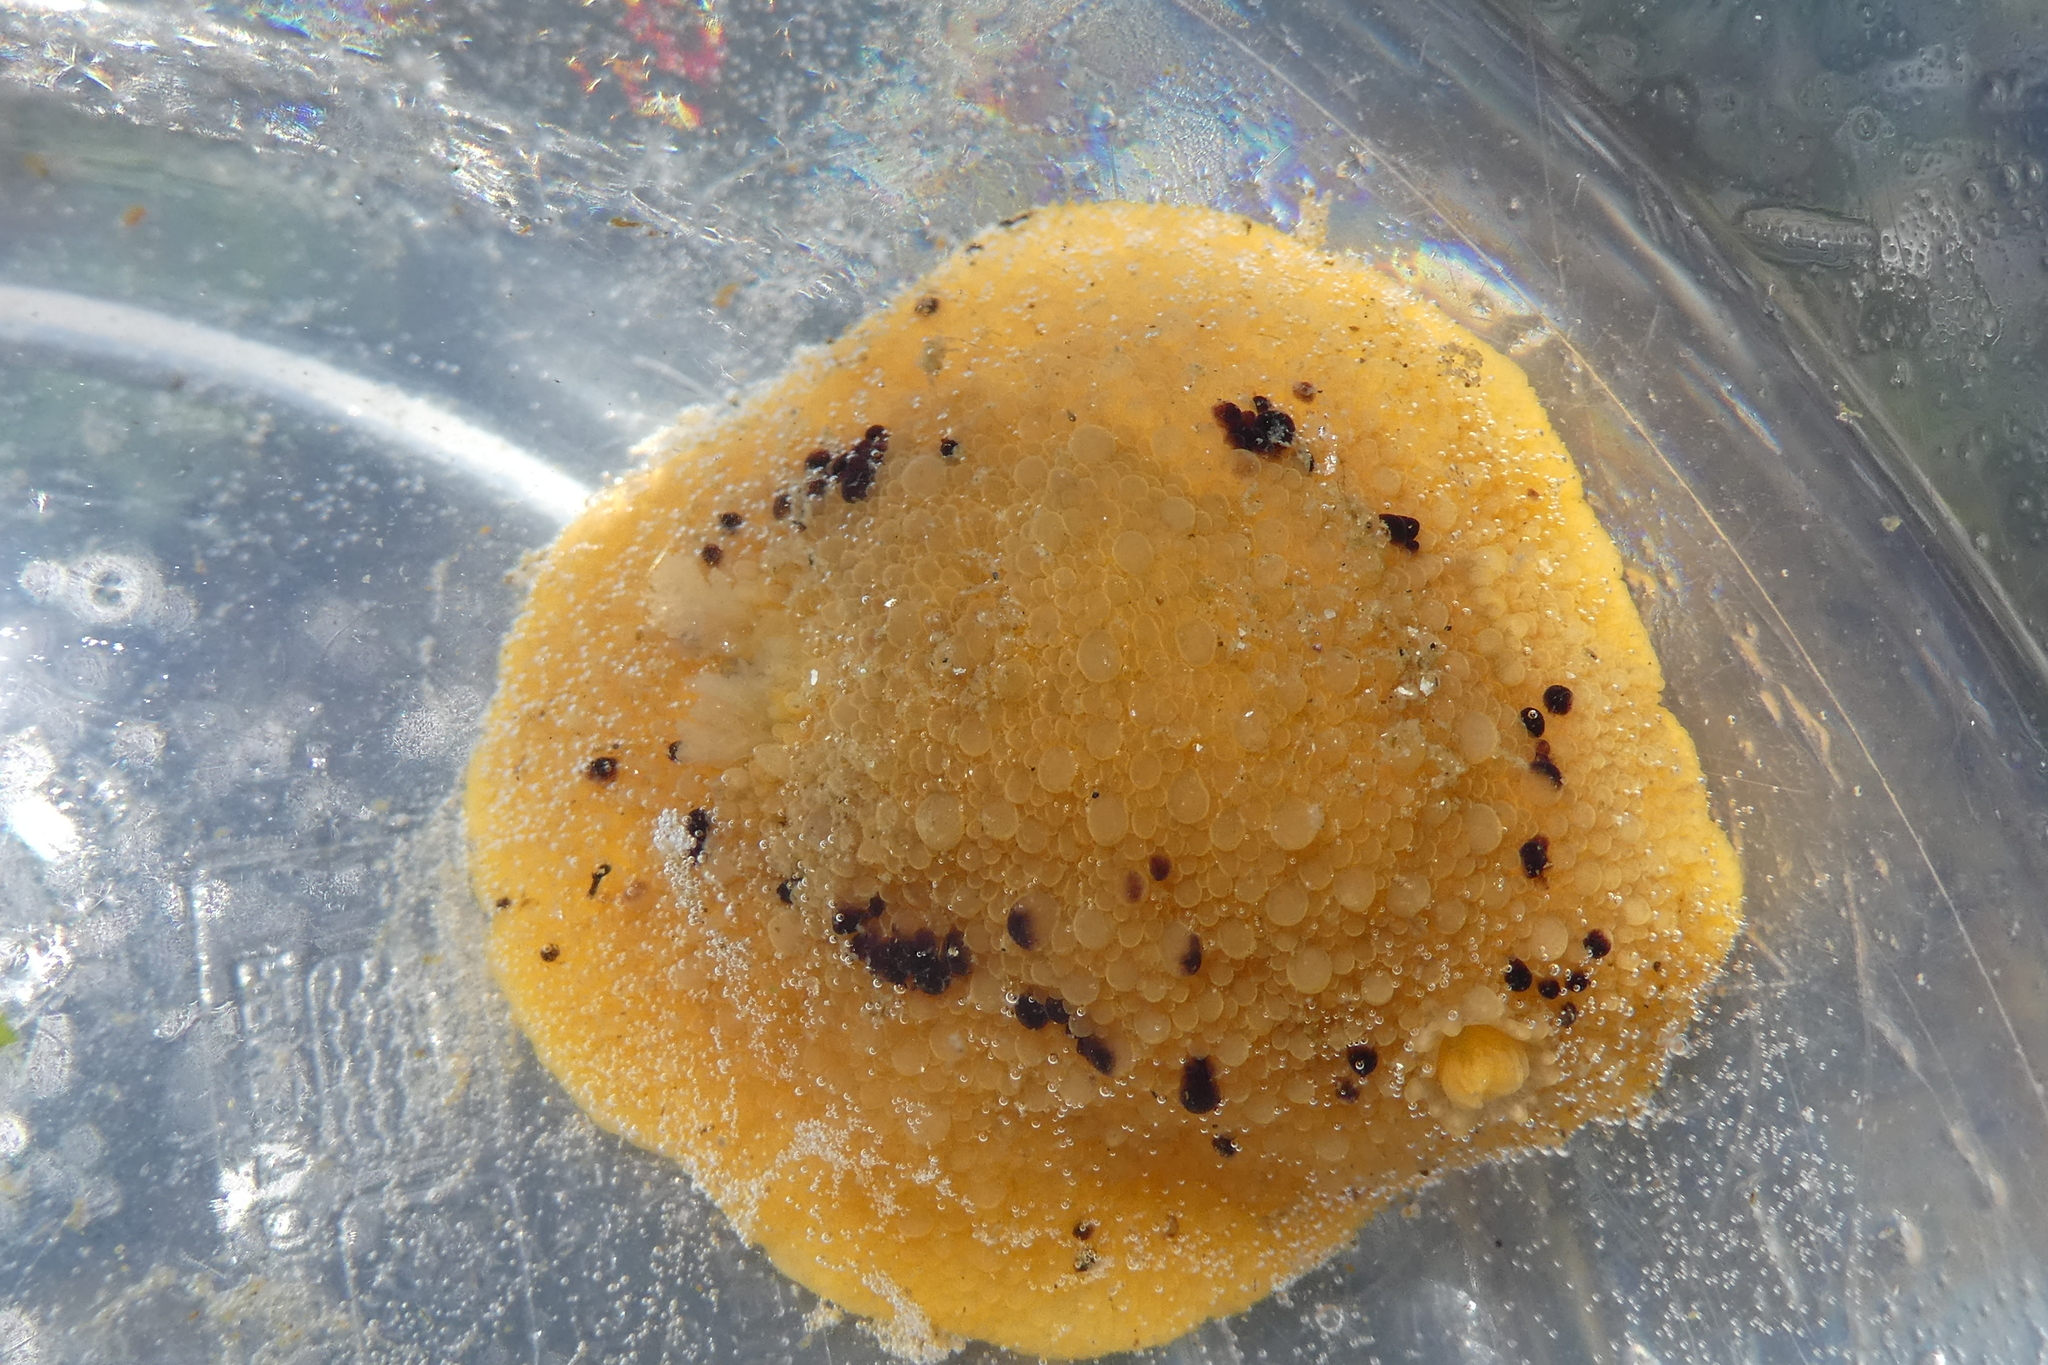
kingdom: Animalia
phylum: Mollusca
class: Gastropoda
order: Nudibranchia
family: Dorididae
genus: Doris
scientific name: Doris montereyensis
